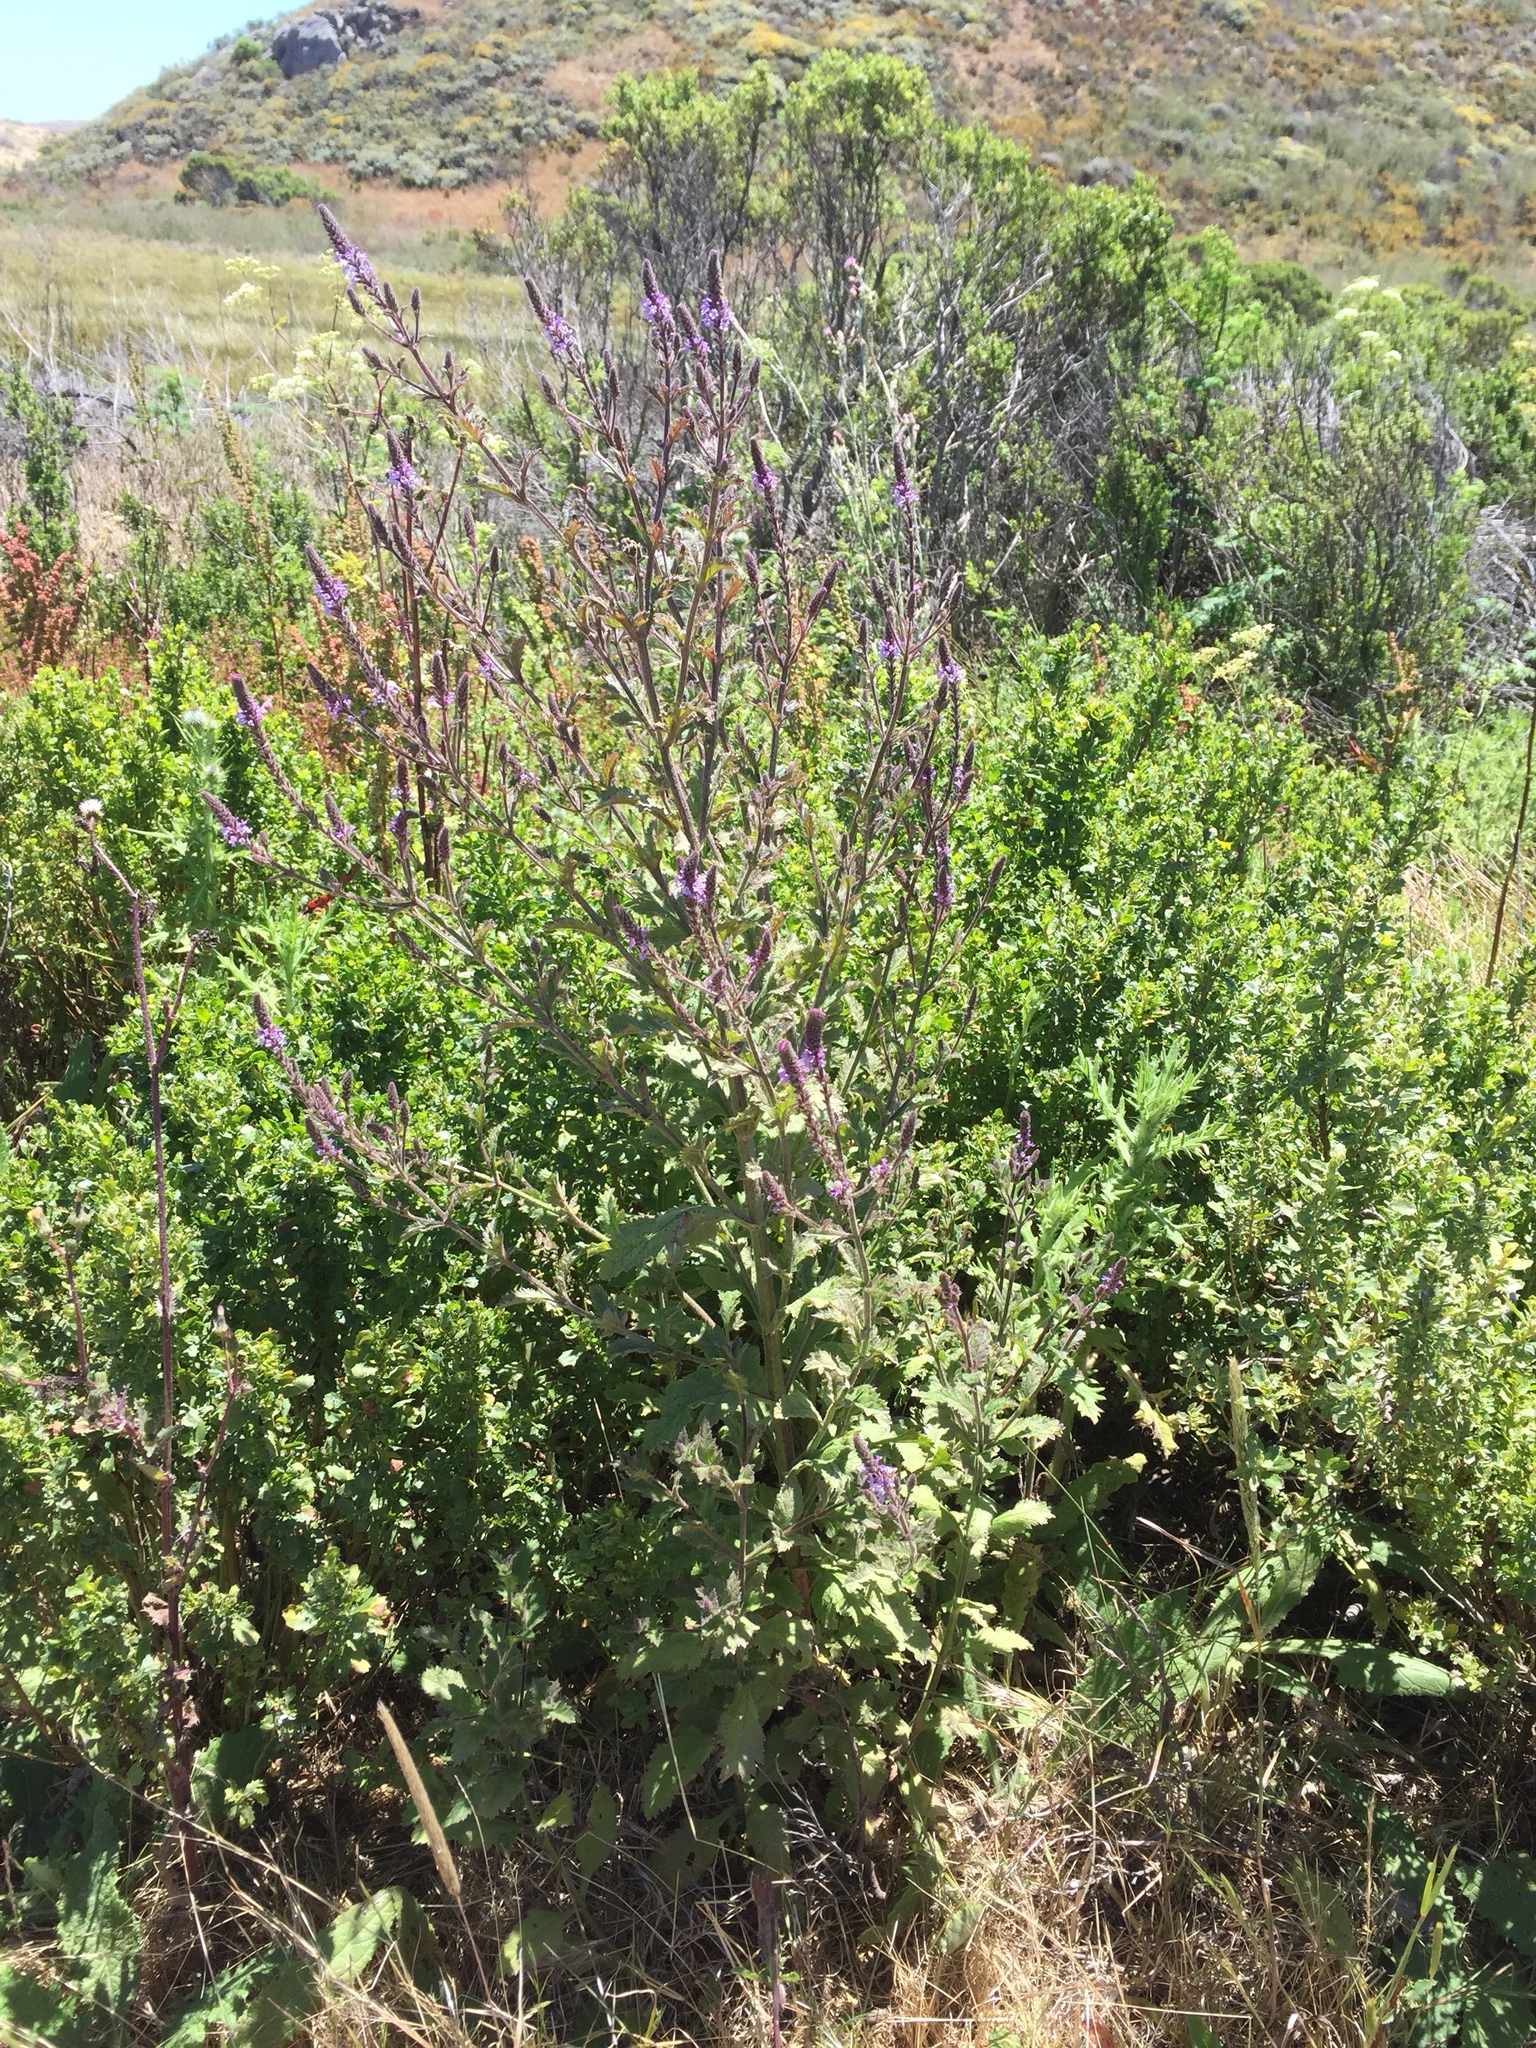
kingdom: Plantae
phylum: Tracheophyta
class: Magnoliopsida
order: Lamiales
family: Verbenaceae
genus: Verbena
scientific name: Verbena lasiostachys
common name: Vervain
